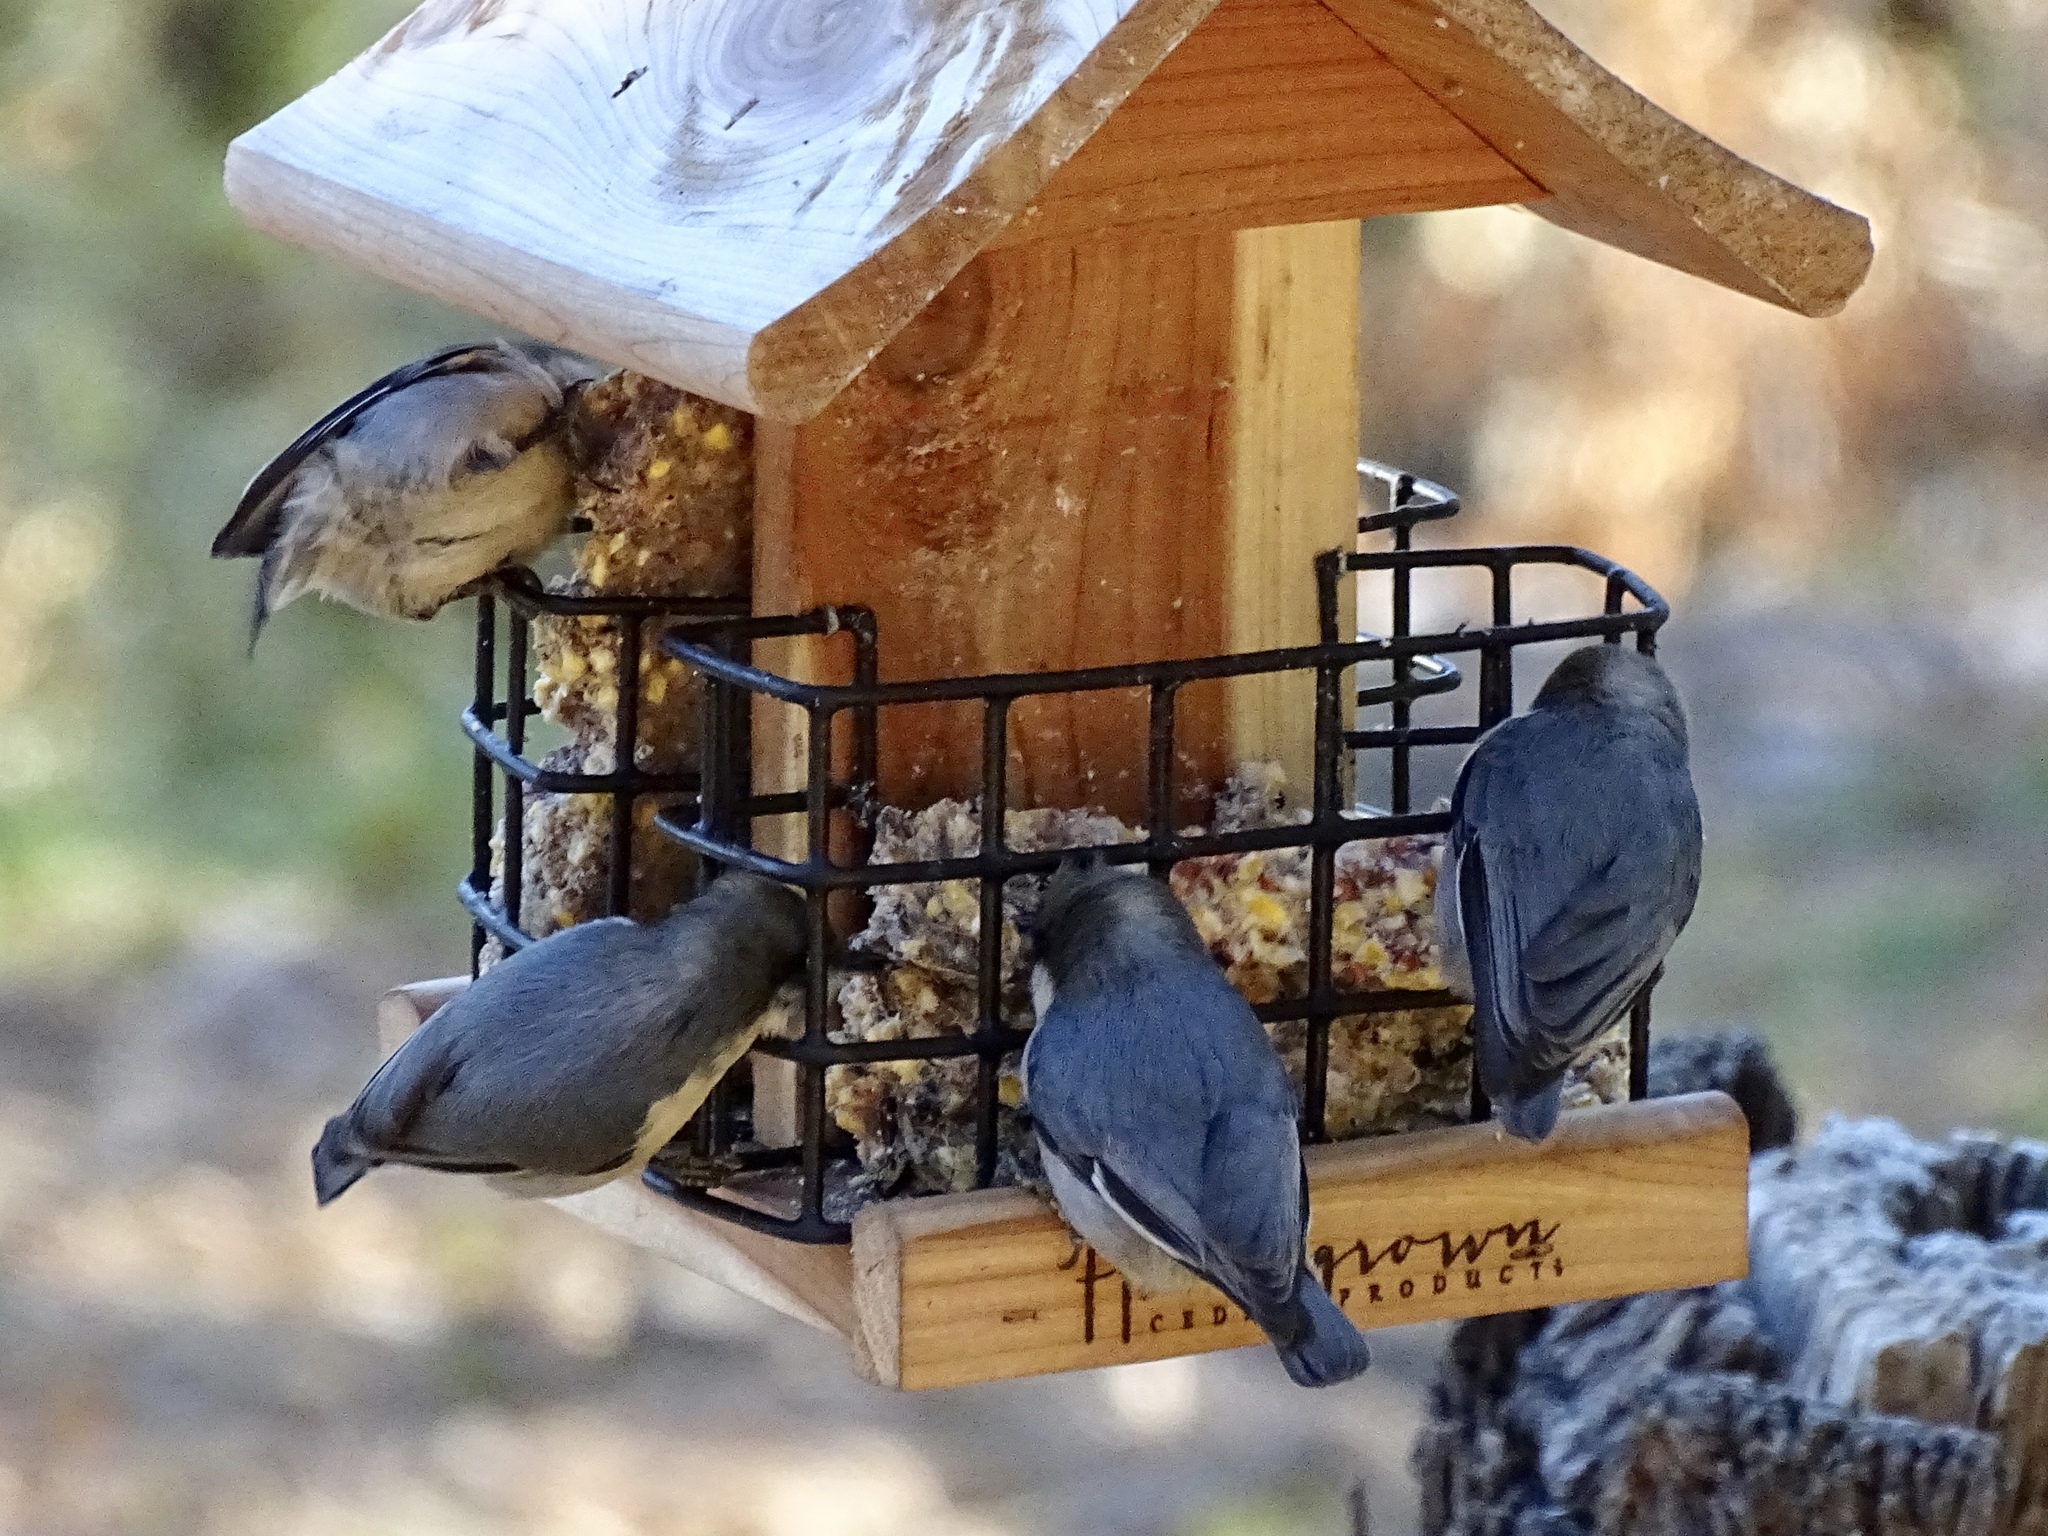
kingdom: Animalia
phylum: Chordata
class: Aves
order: Passeriformes
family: Sittidae
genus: Sitta
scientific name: Sitta pygmaea
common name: Pygmy nuthatch
